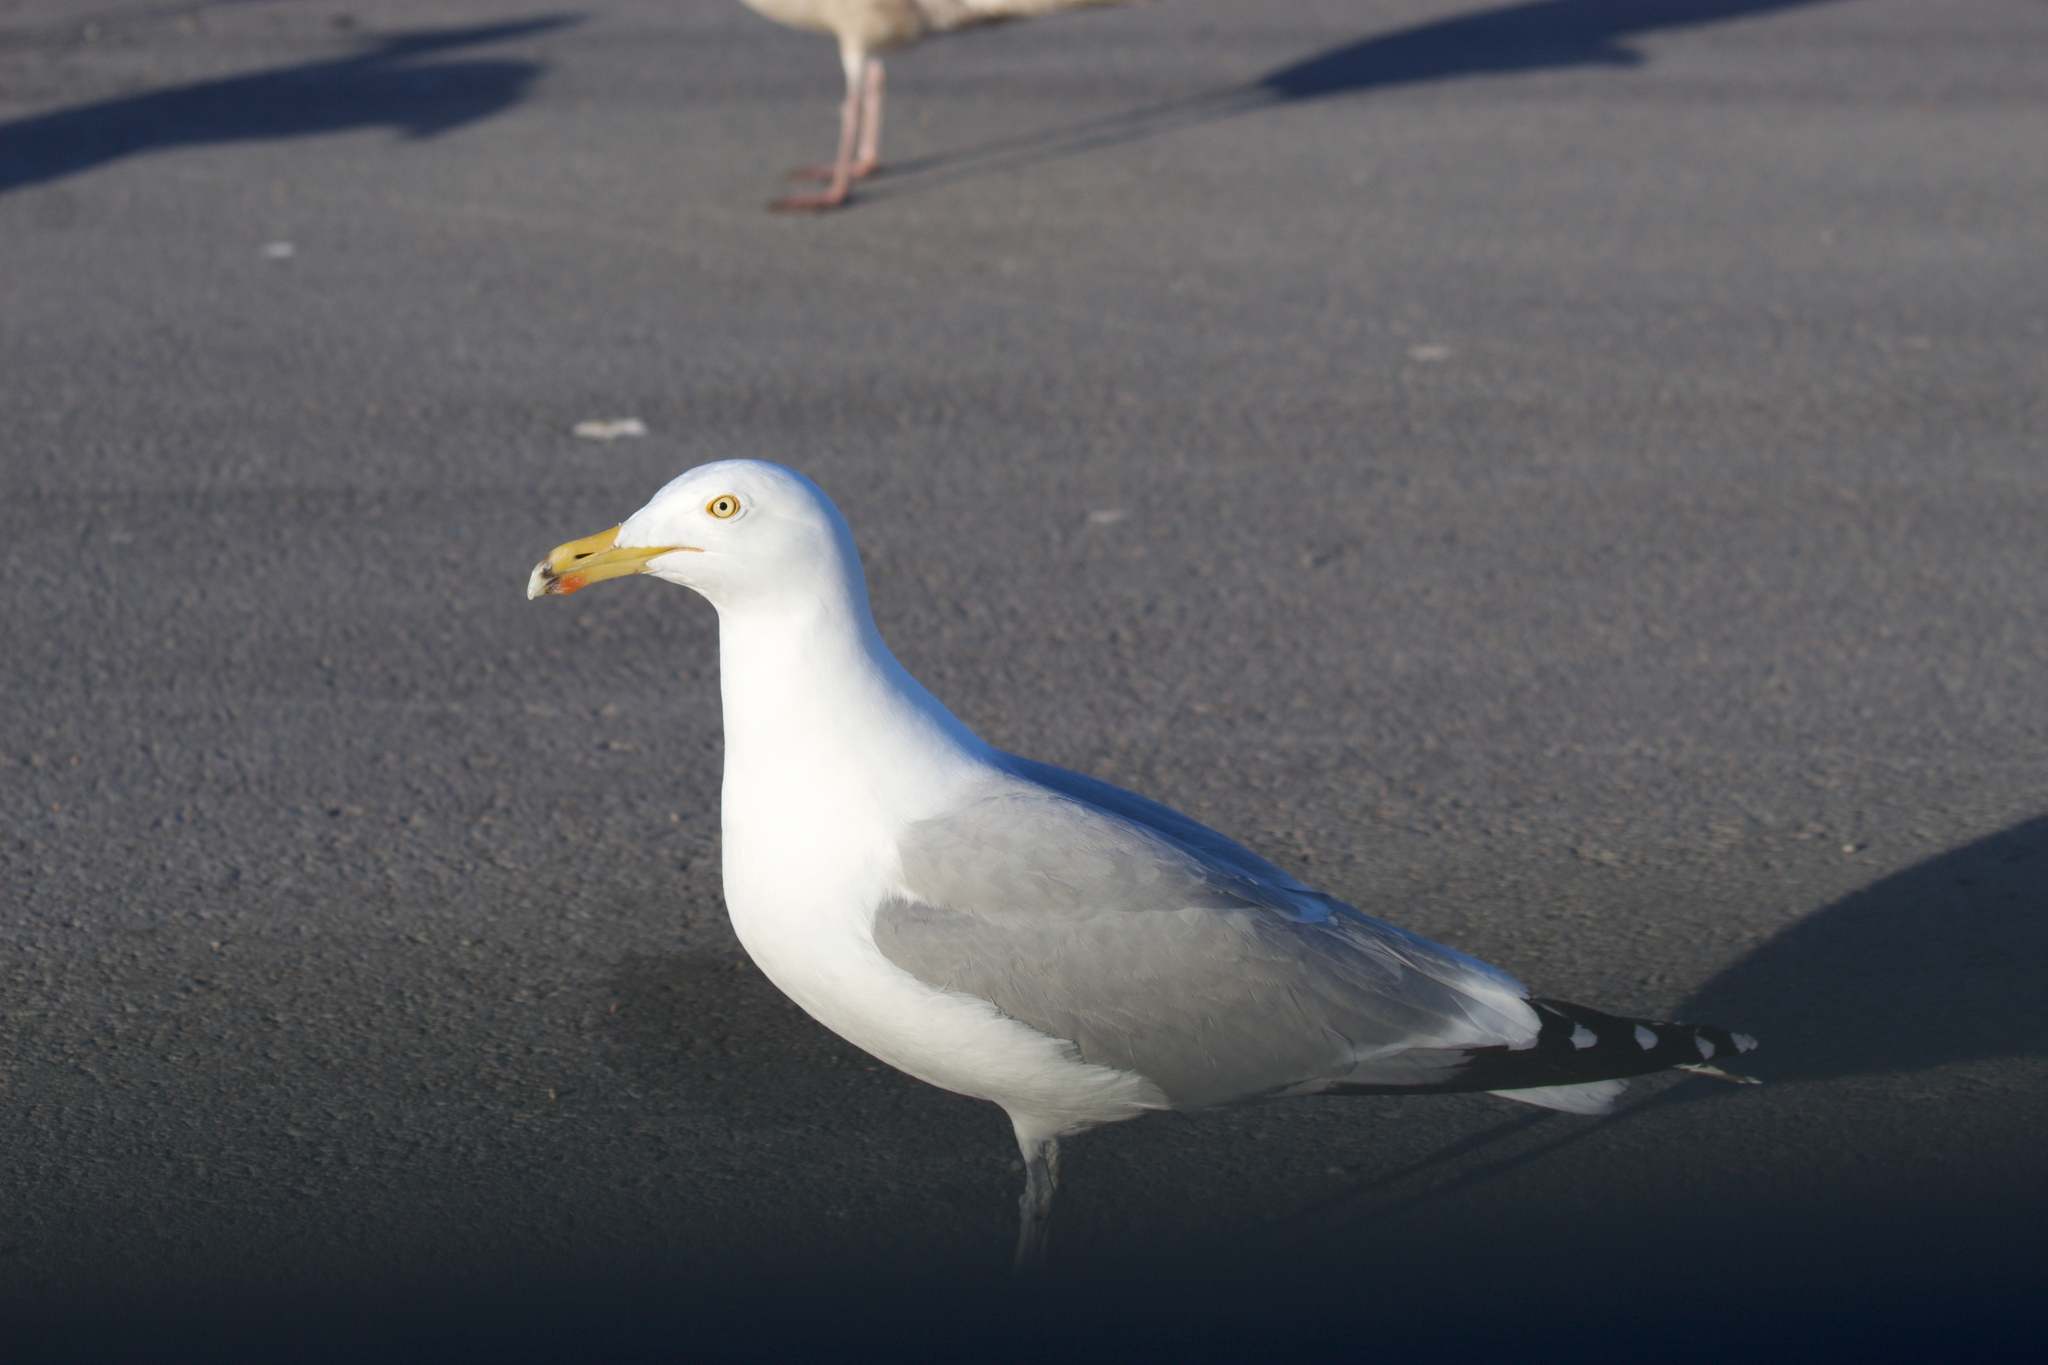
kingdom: Animalia
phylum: Chordata
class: Aves
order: Charadriiformes
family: Laridae
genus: Larus
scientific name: Larus argentatus
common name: Herring gull
